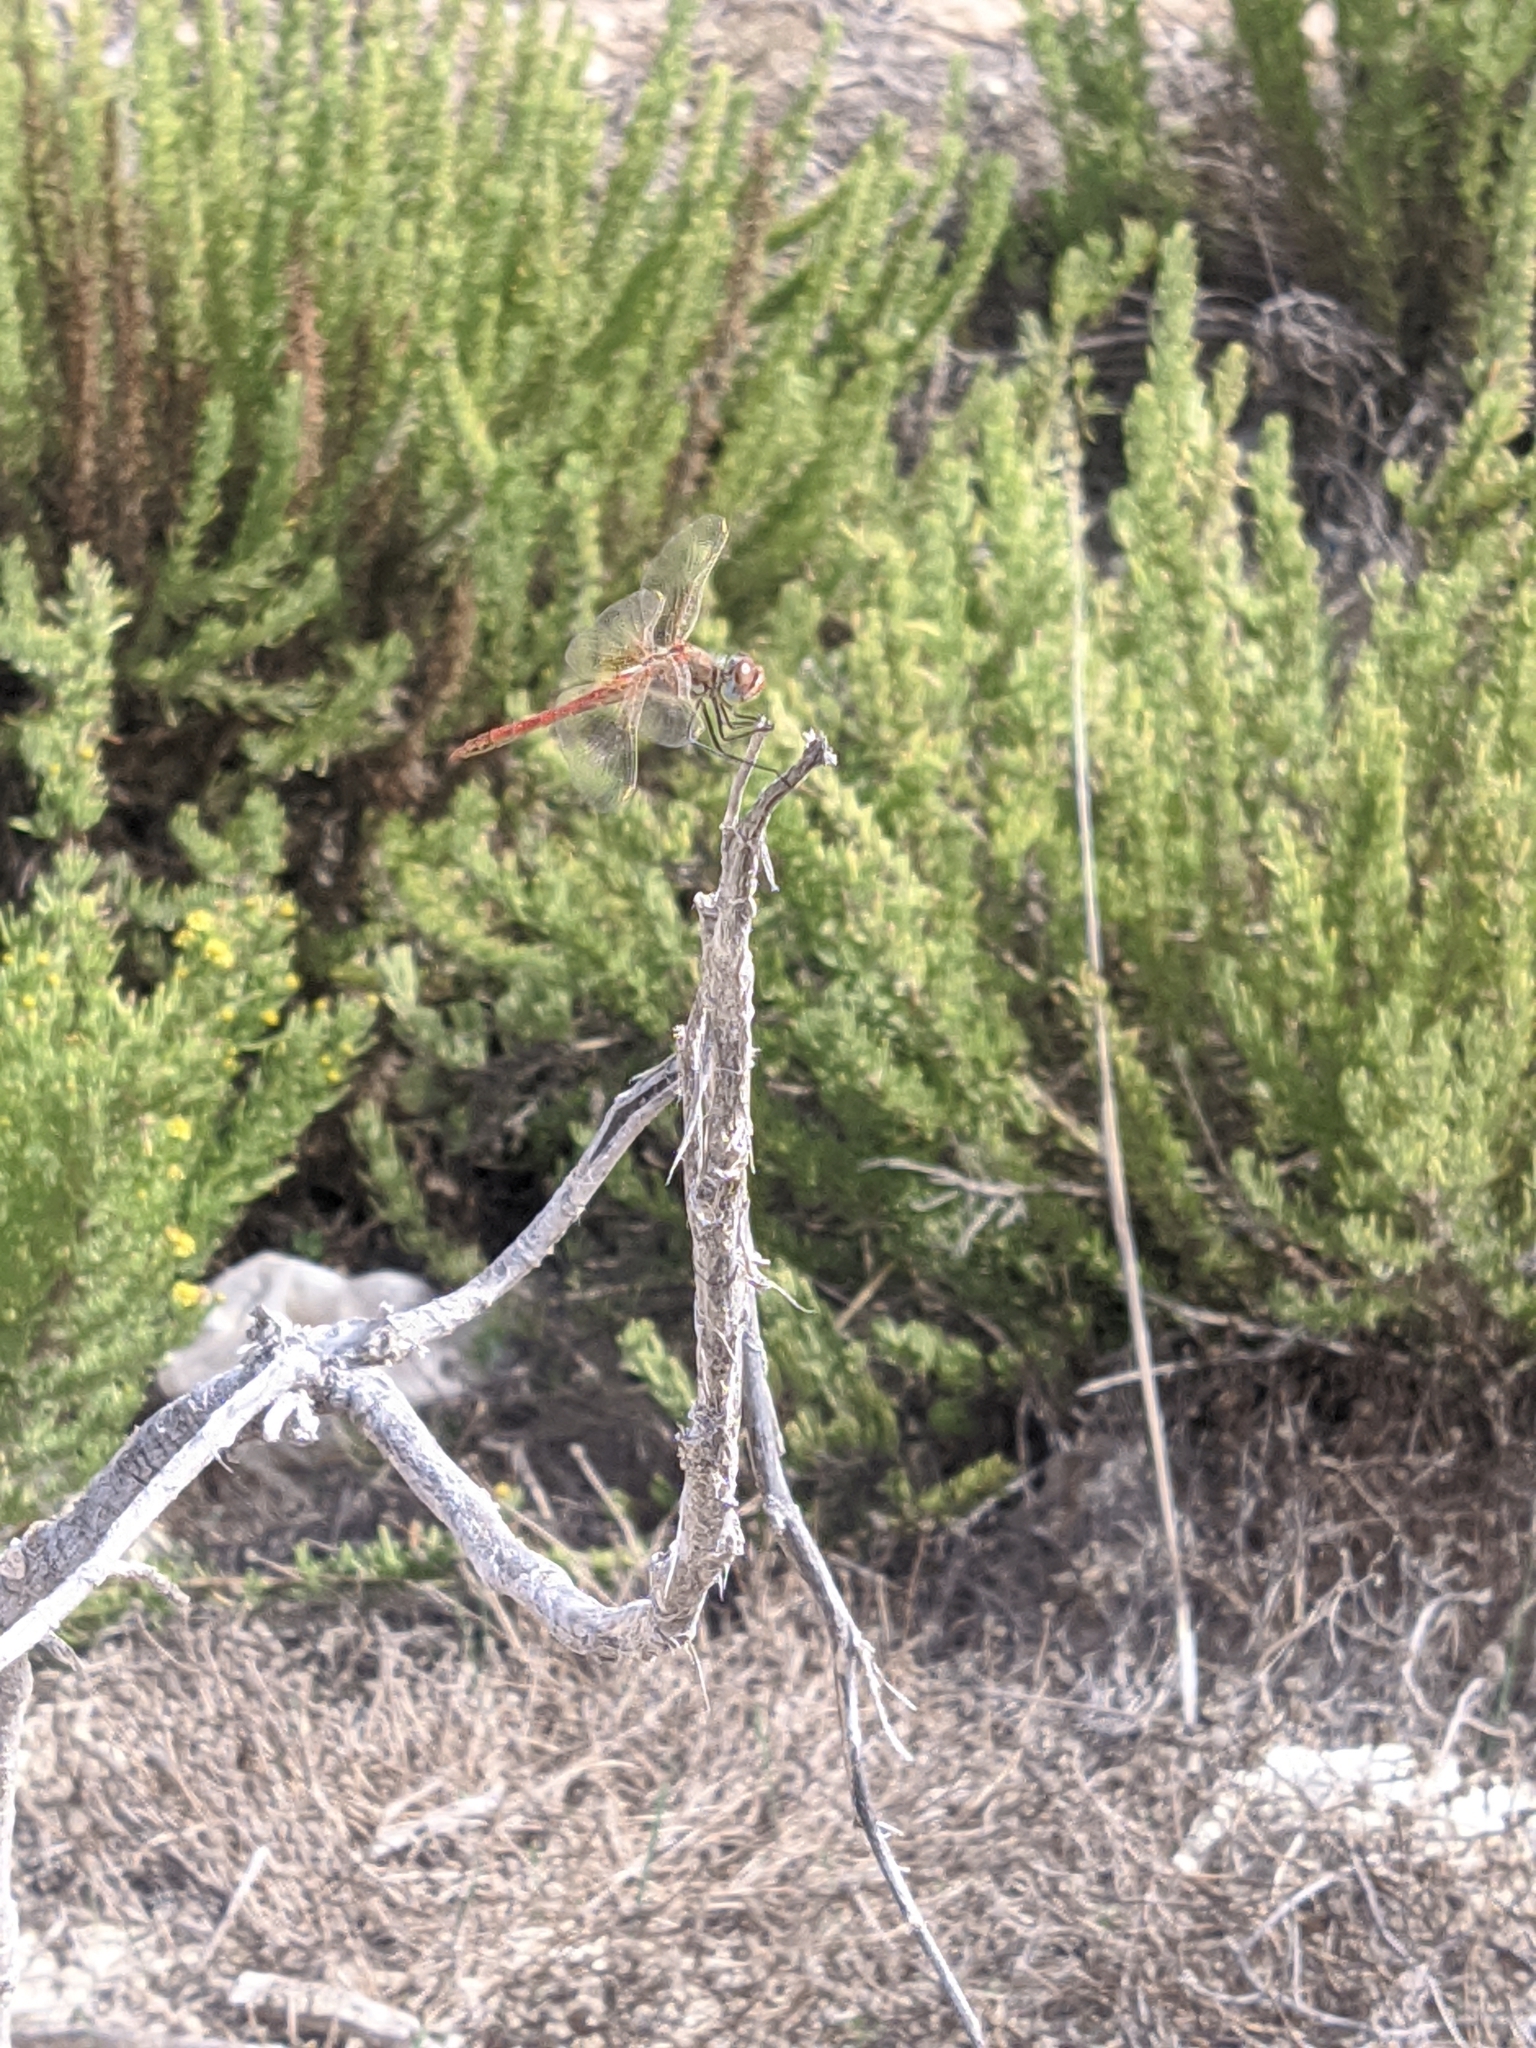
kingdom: Animalia
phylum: Arthropoda
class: Insecta
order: Odonata
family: Libellulidae
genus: Sympetrum
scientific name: Sympetrum fonscolombii
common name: Red-veined darter
